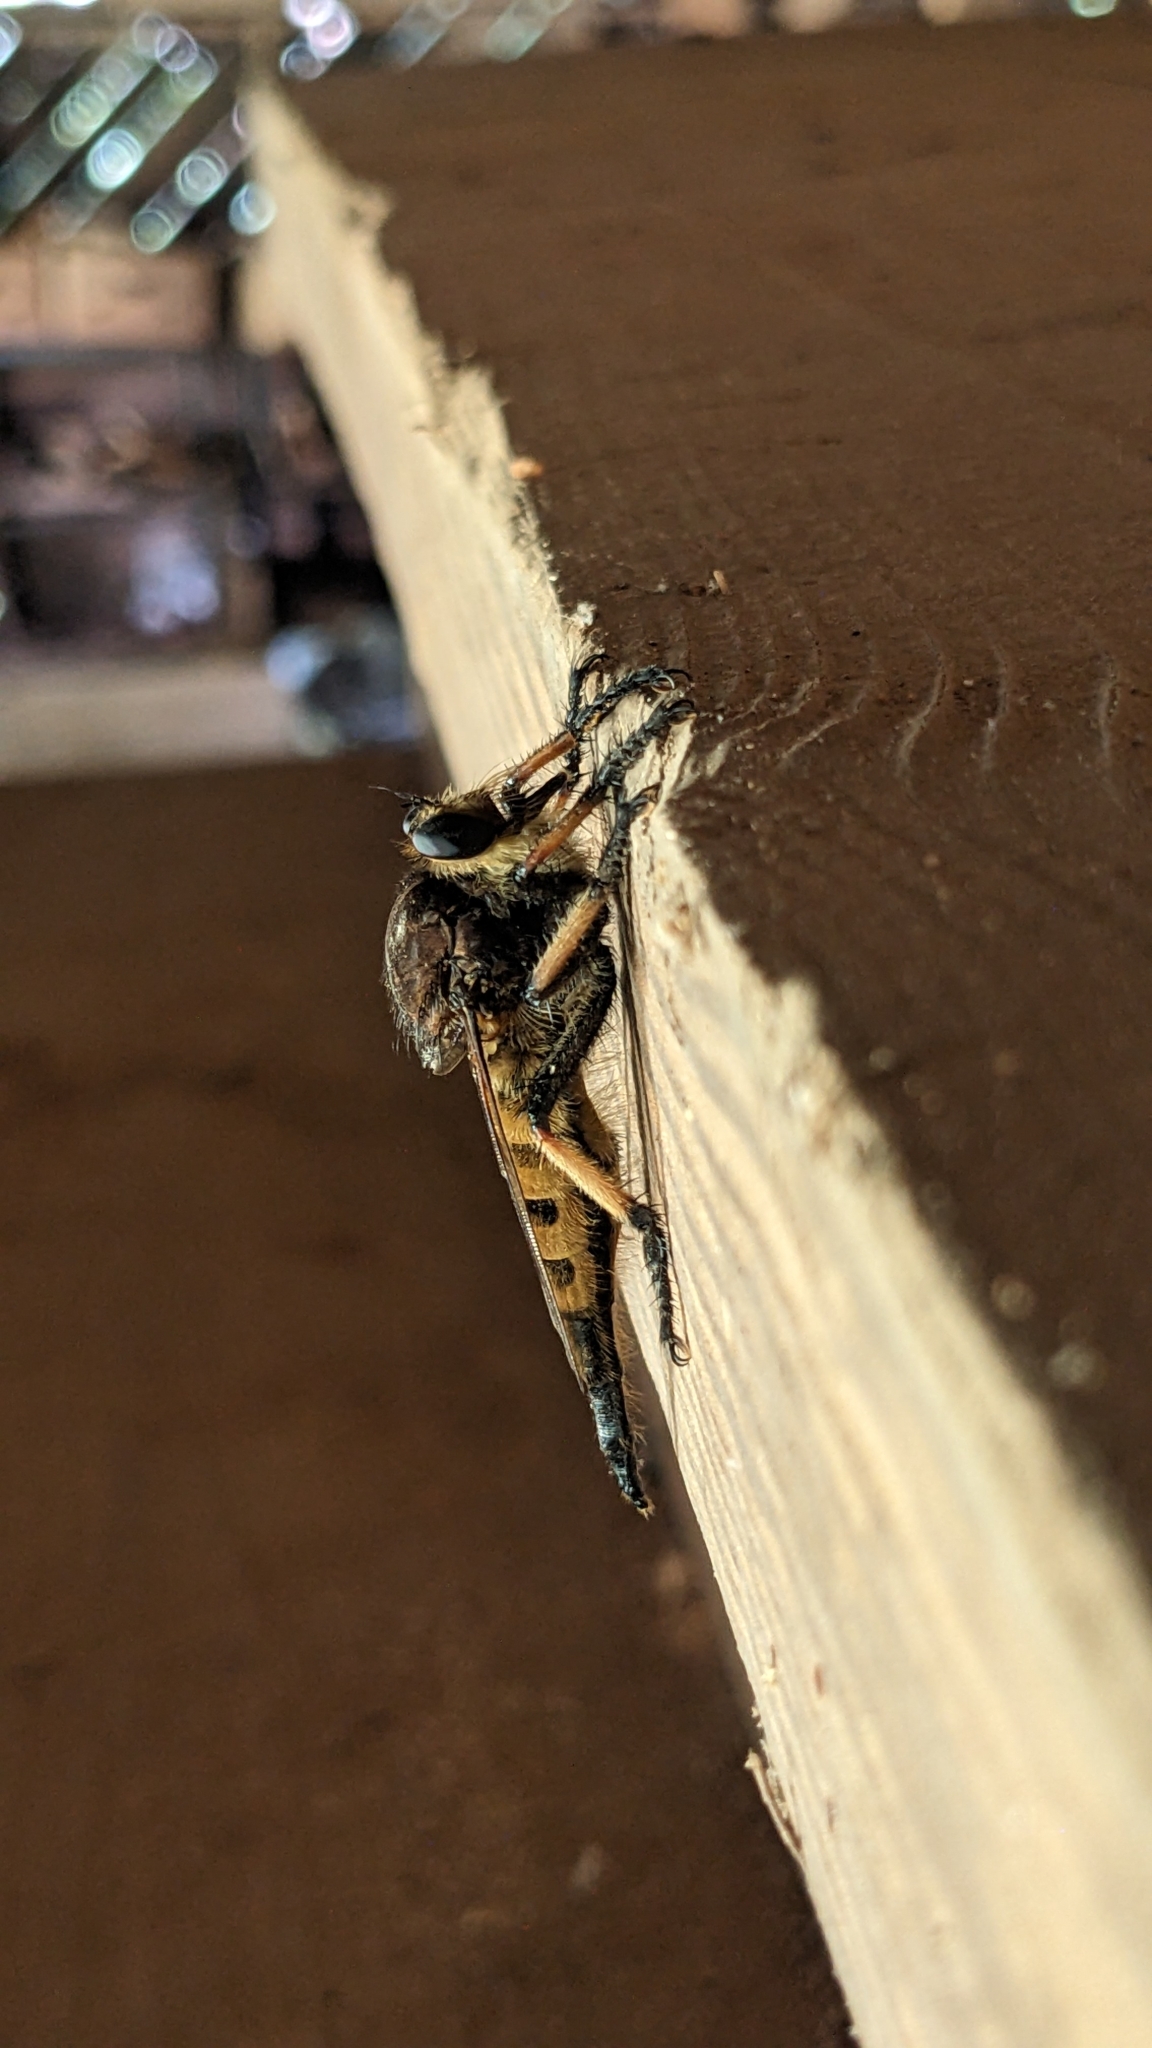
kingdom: Animalia
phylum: Arthropoda
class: Insecta
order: Diptera
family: Asilidae
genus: Promachus
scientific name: Promachus rufipes
